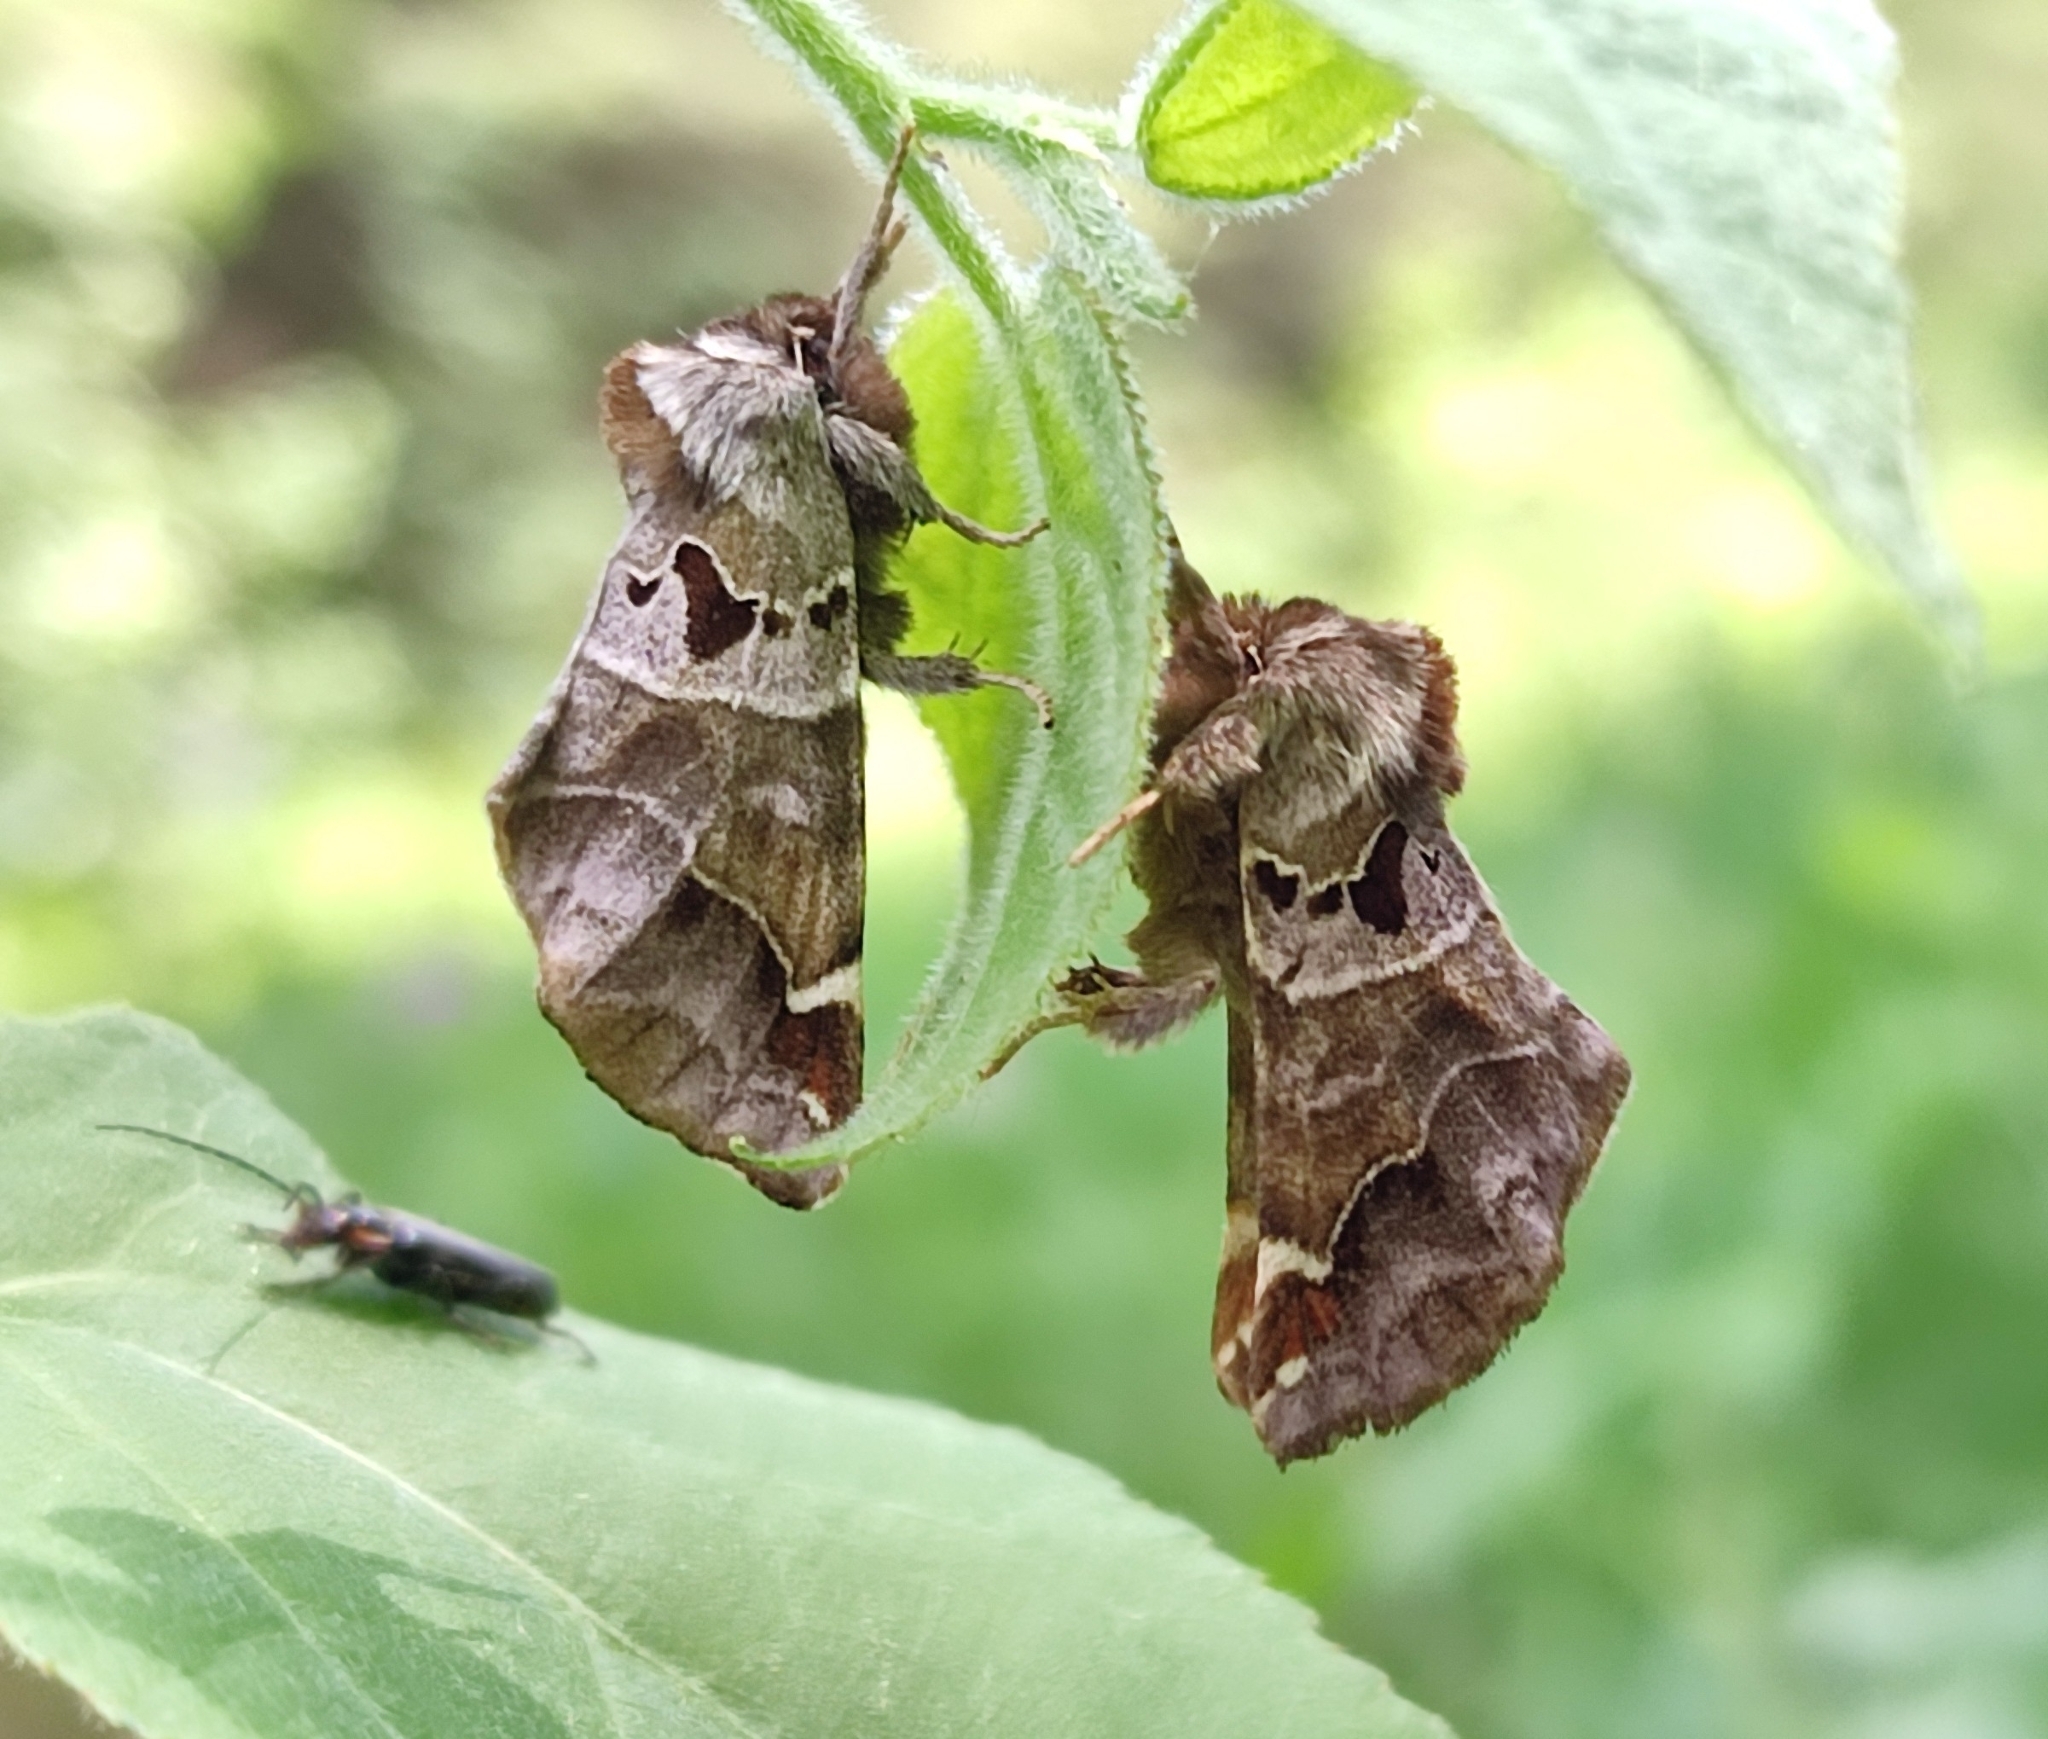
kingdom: Animalia
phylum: Arthropoda
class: Insecta
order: Lepidoptera
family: Notodontidae
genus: Pygaera
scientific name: Pygaera timon
